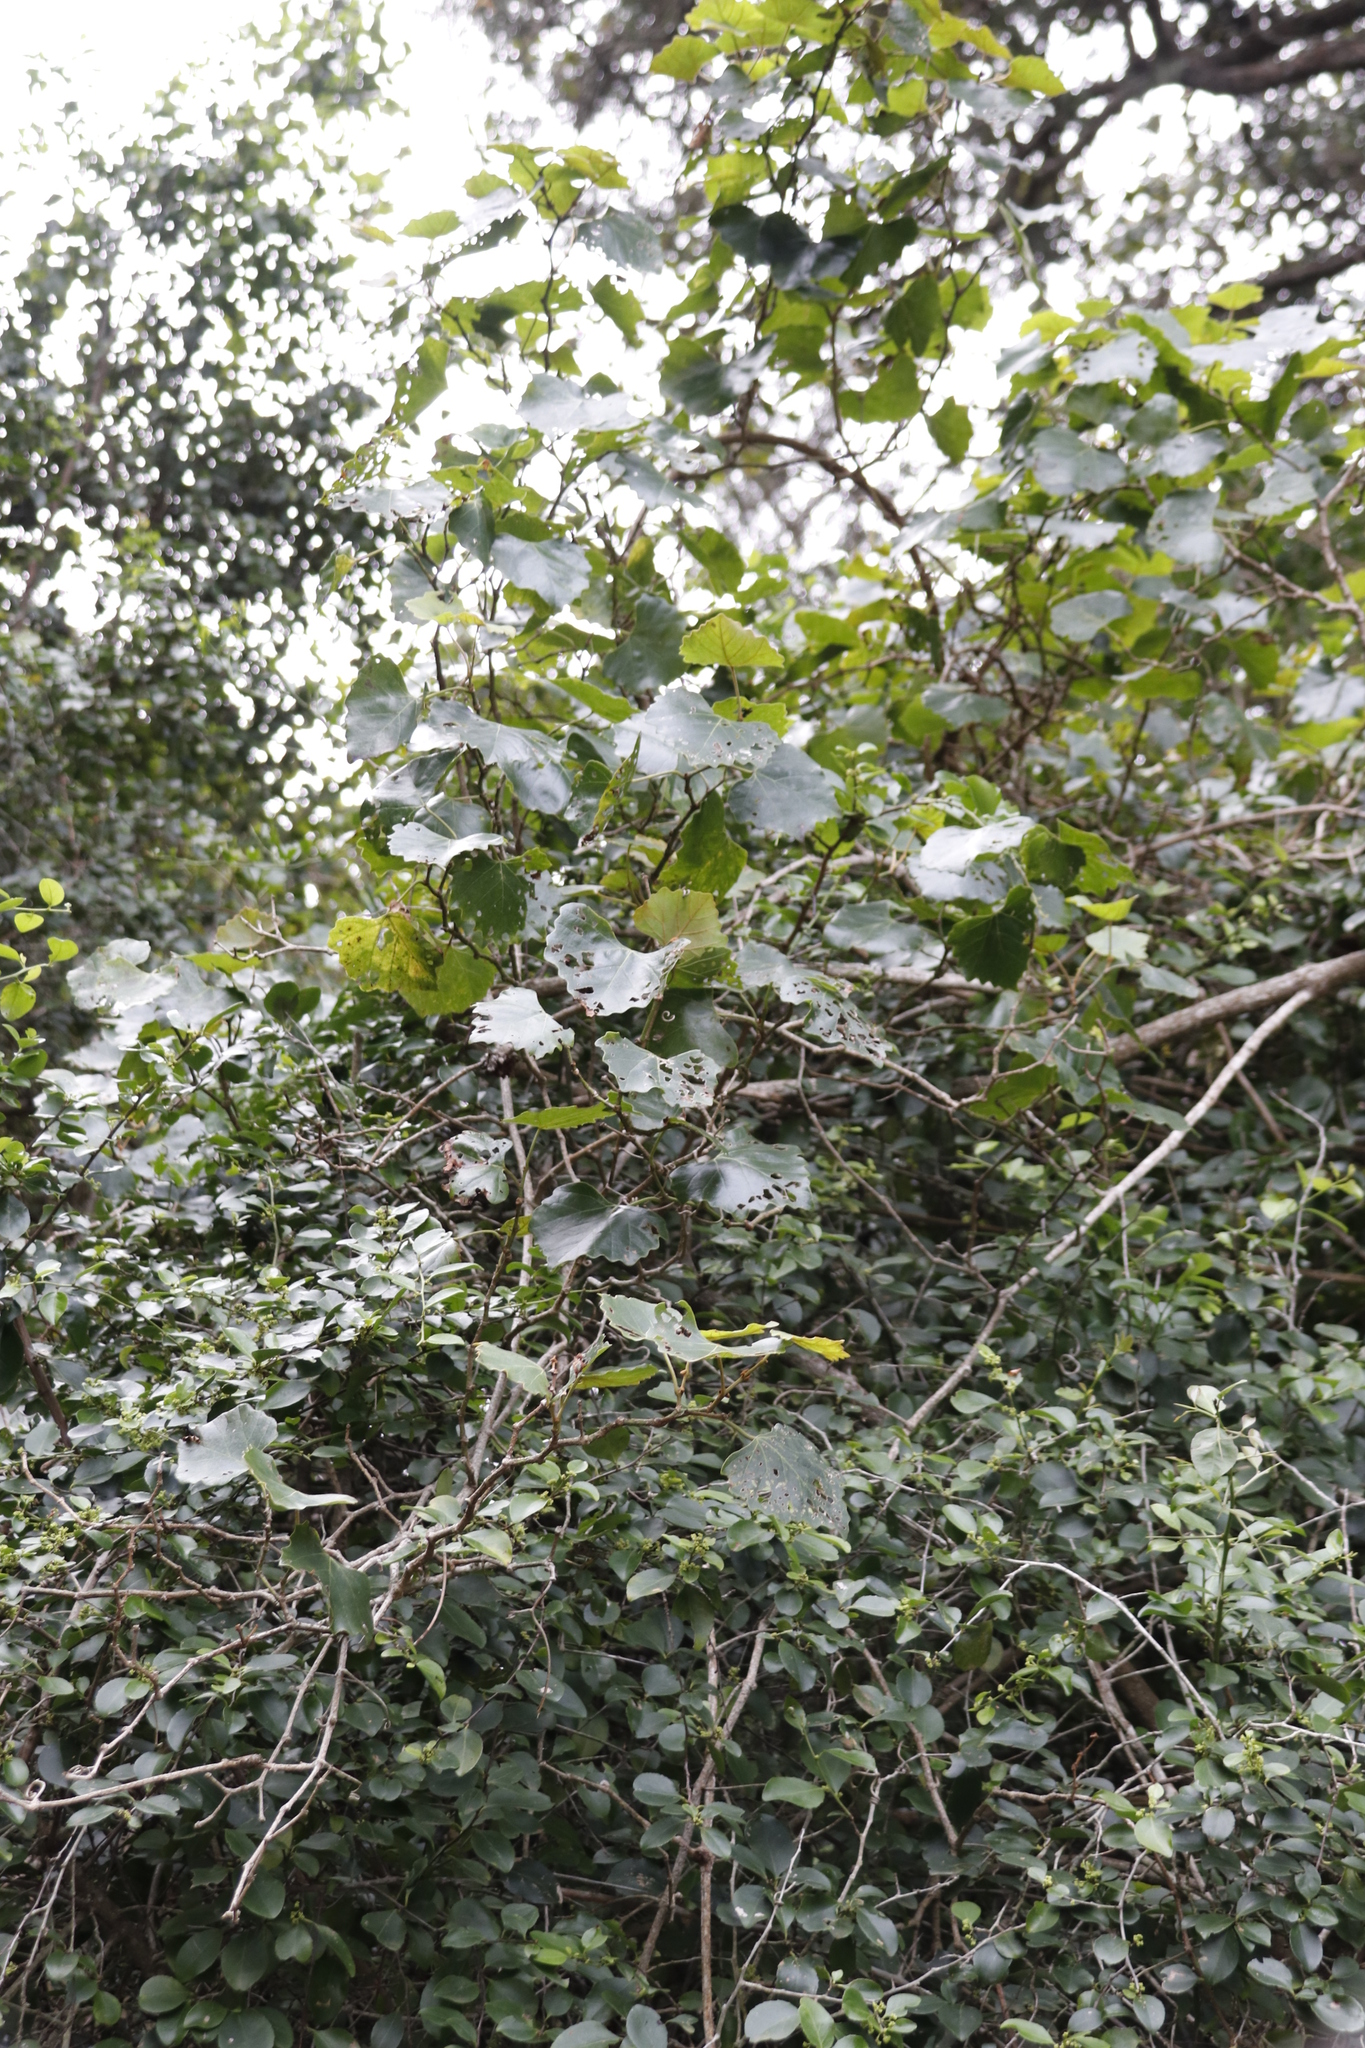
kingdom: Plantae
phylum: Tracheophyta
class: Magnoliopsida
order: Vitales
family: Vitaceae
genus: Rhoicissus
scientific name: Rhoicissus tomentosa
